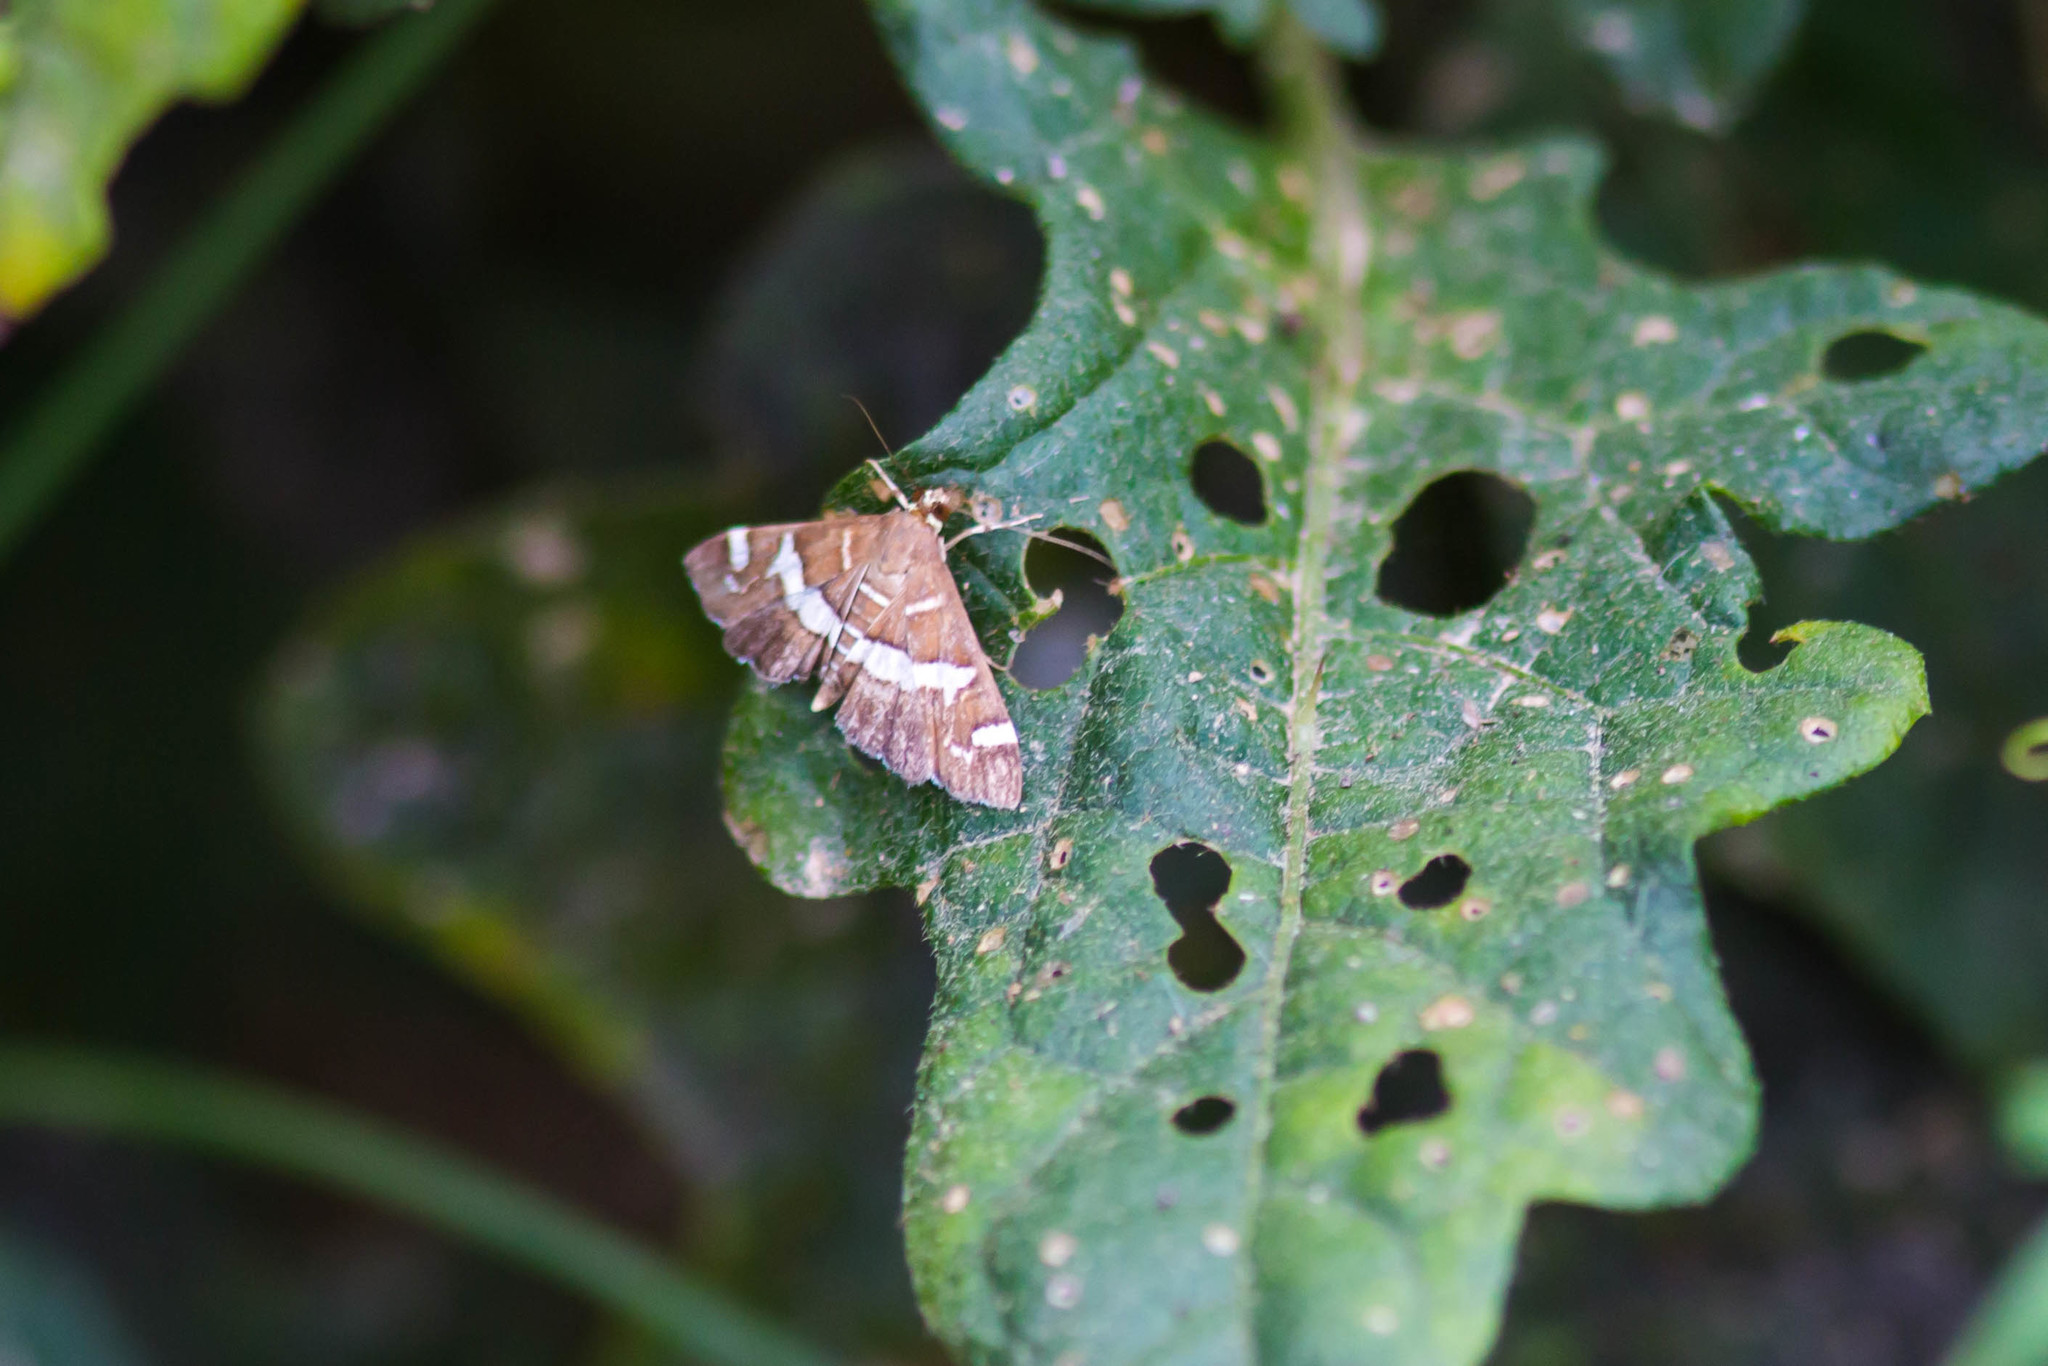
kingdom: Animalia
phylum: Arthropoda
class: Insecta
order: Lepidoptera
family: Crambidae
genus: Spoladea
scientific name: Spoladea recurvalis
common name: Beet webworm moth
